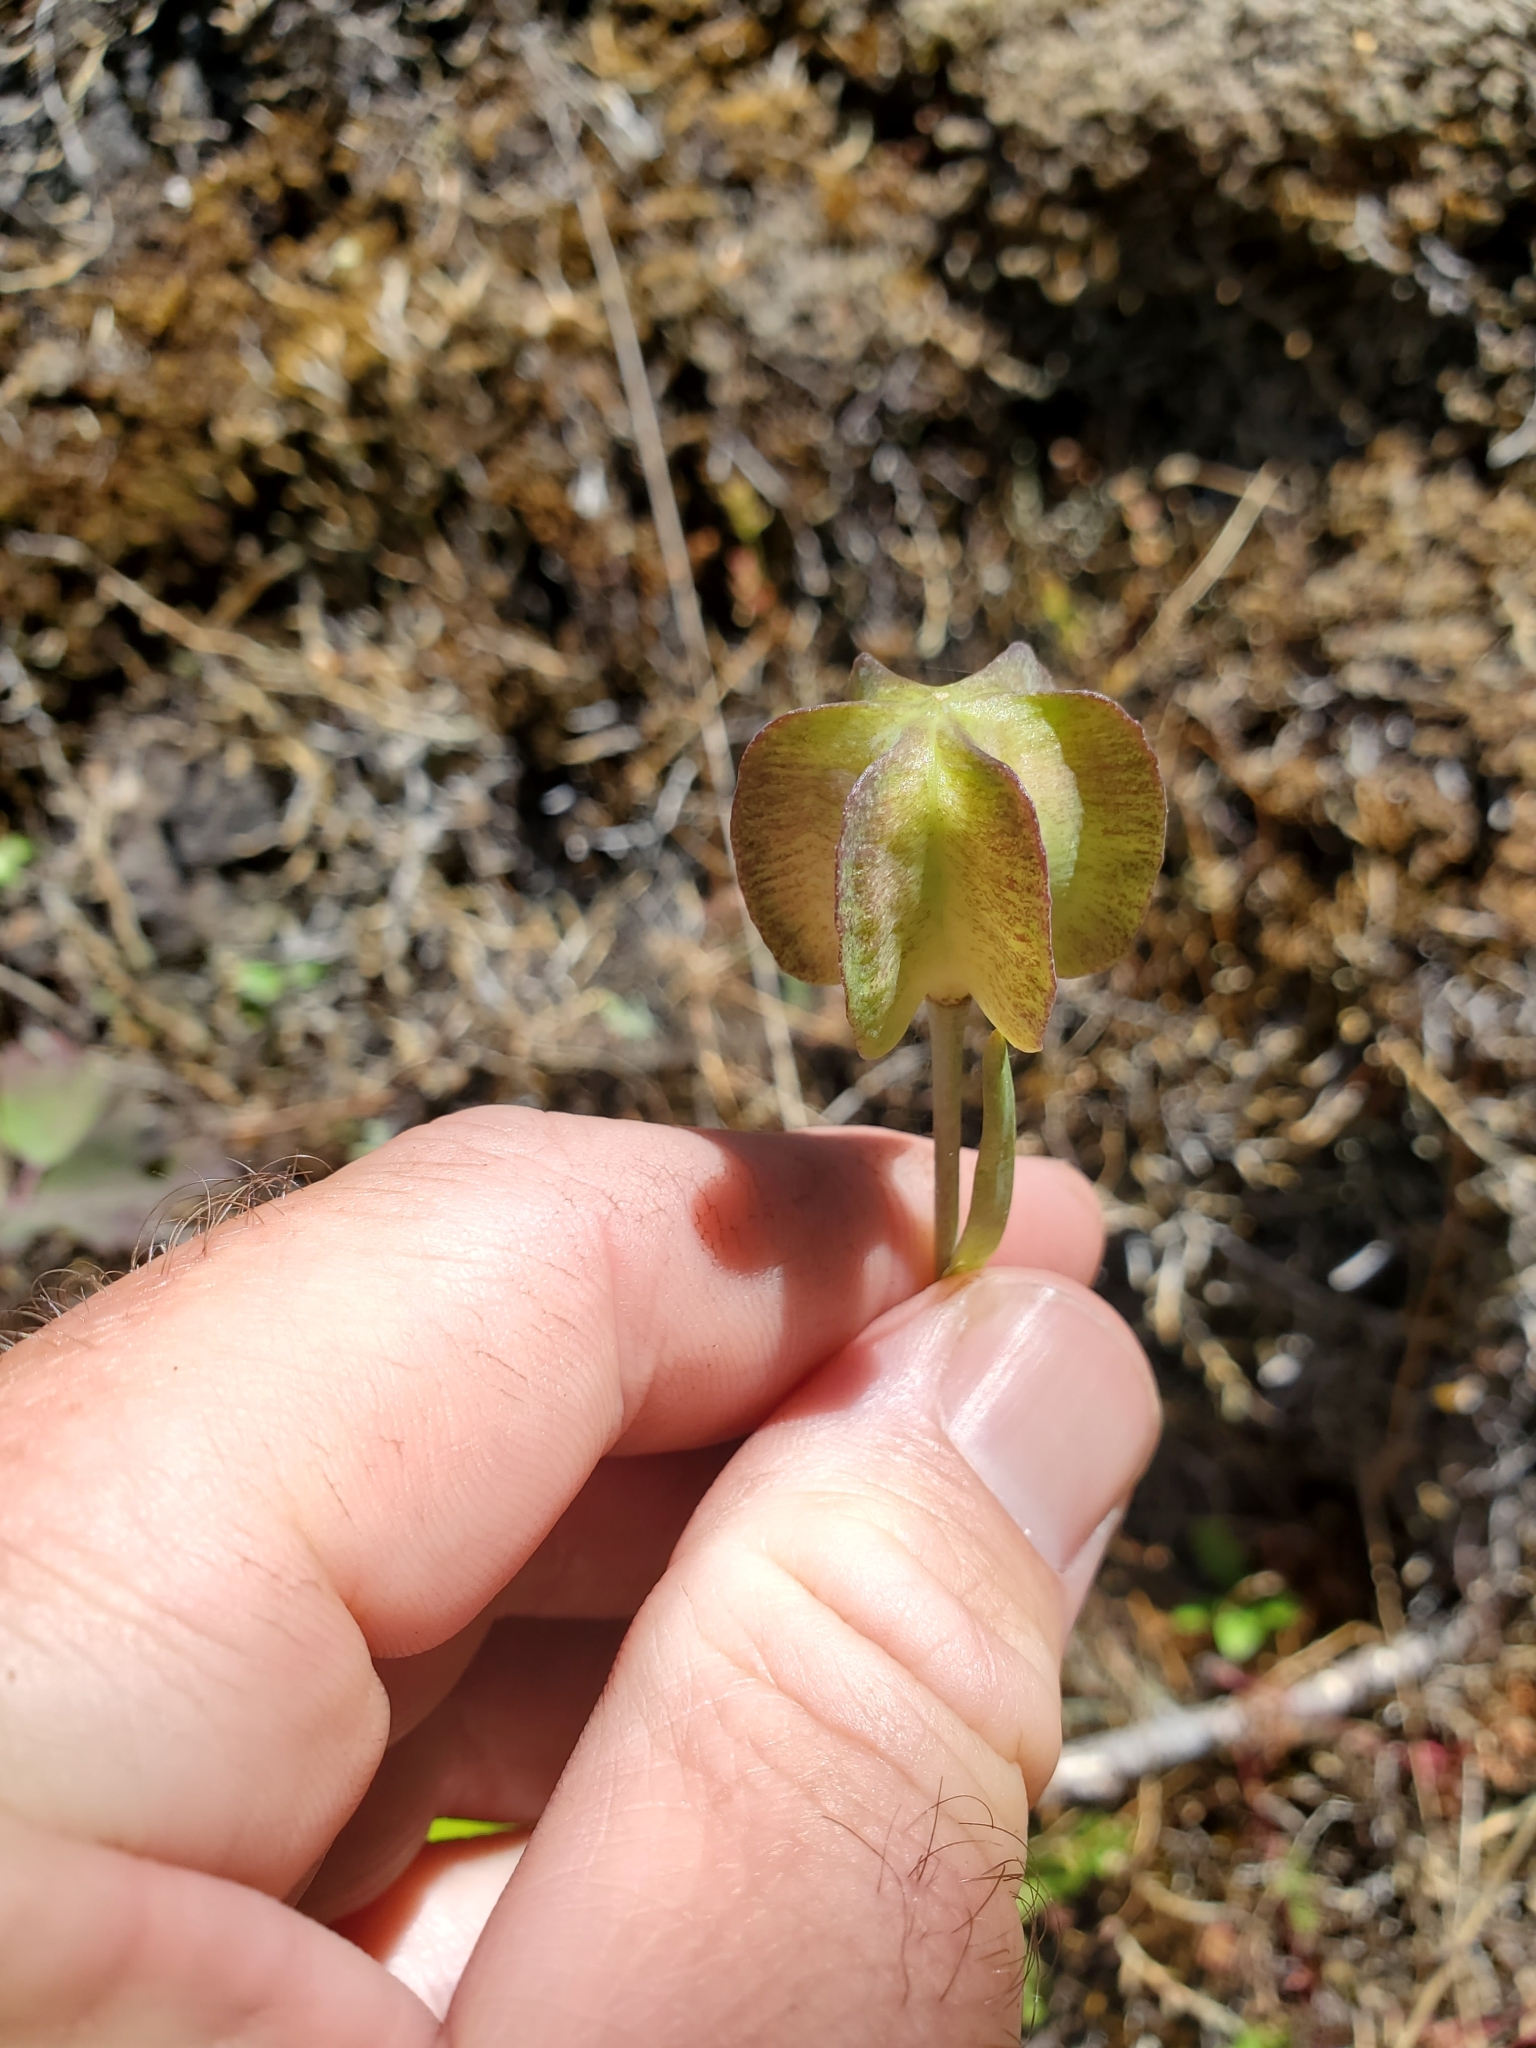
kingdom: Plantae
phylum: Tracheophyta
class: Liliopsida
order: Liliales
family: Liliaceae
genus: Fritillaria
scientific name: Fritillaria affinis
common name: Ojai fritillary
